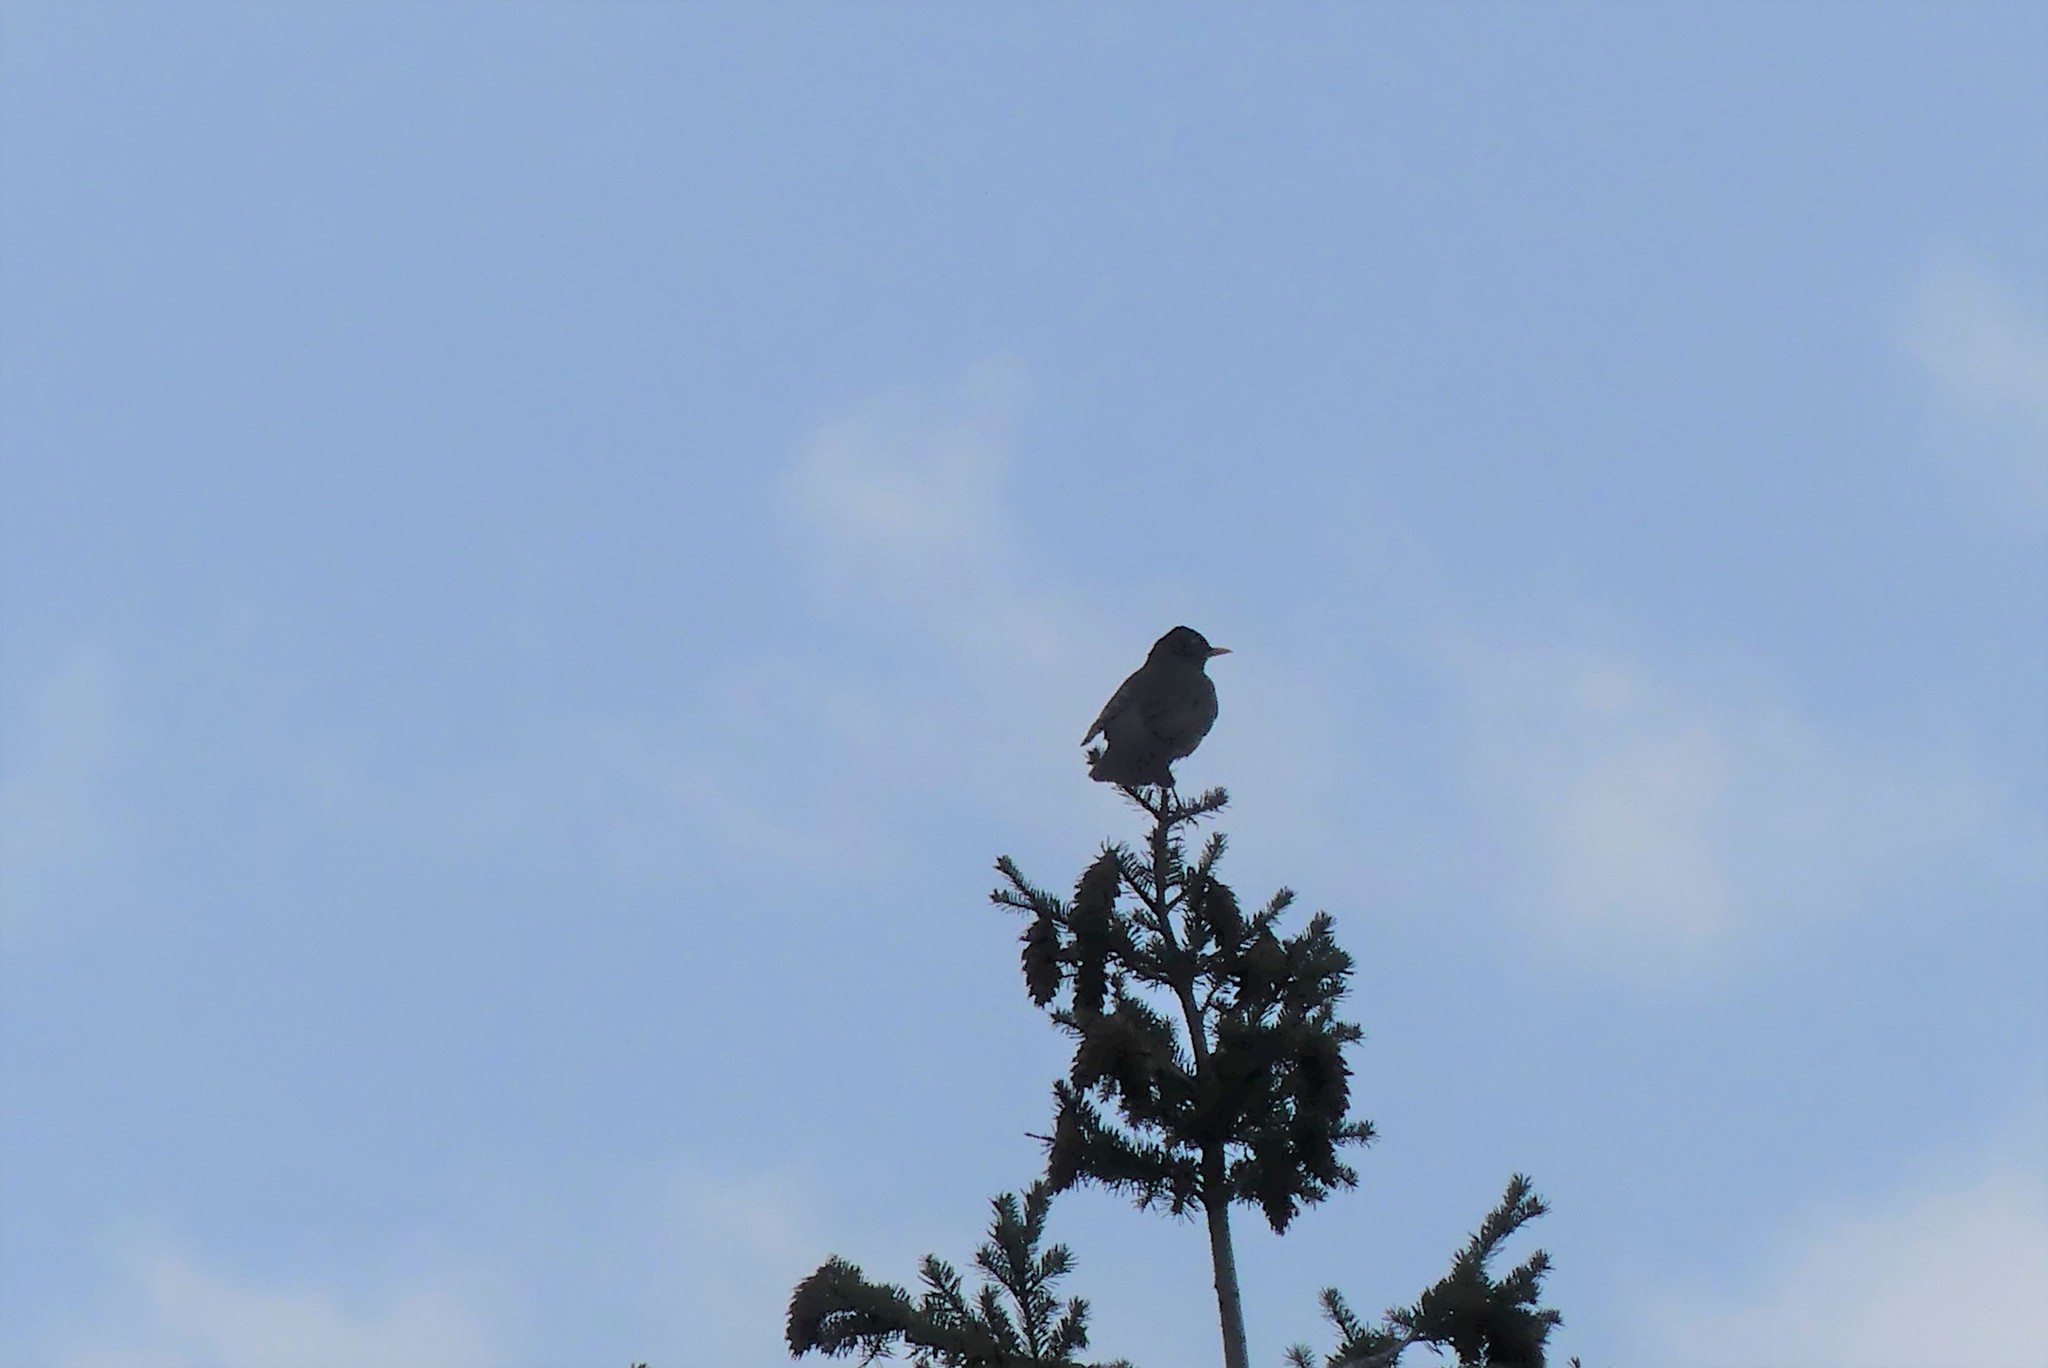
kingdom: Animalia
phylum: Chordata
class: Aves
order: Passeriformes
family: Turdidae
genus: Turdus
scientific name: Turdus migratorius
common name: American robin
